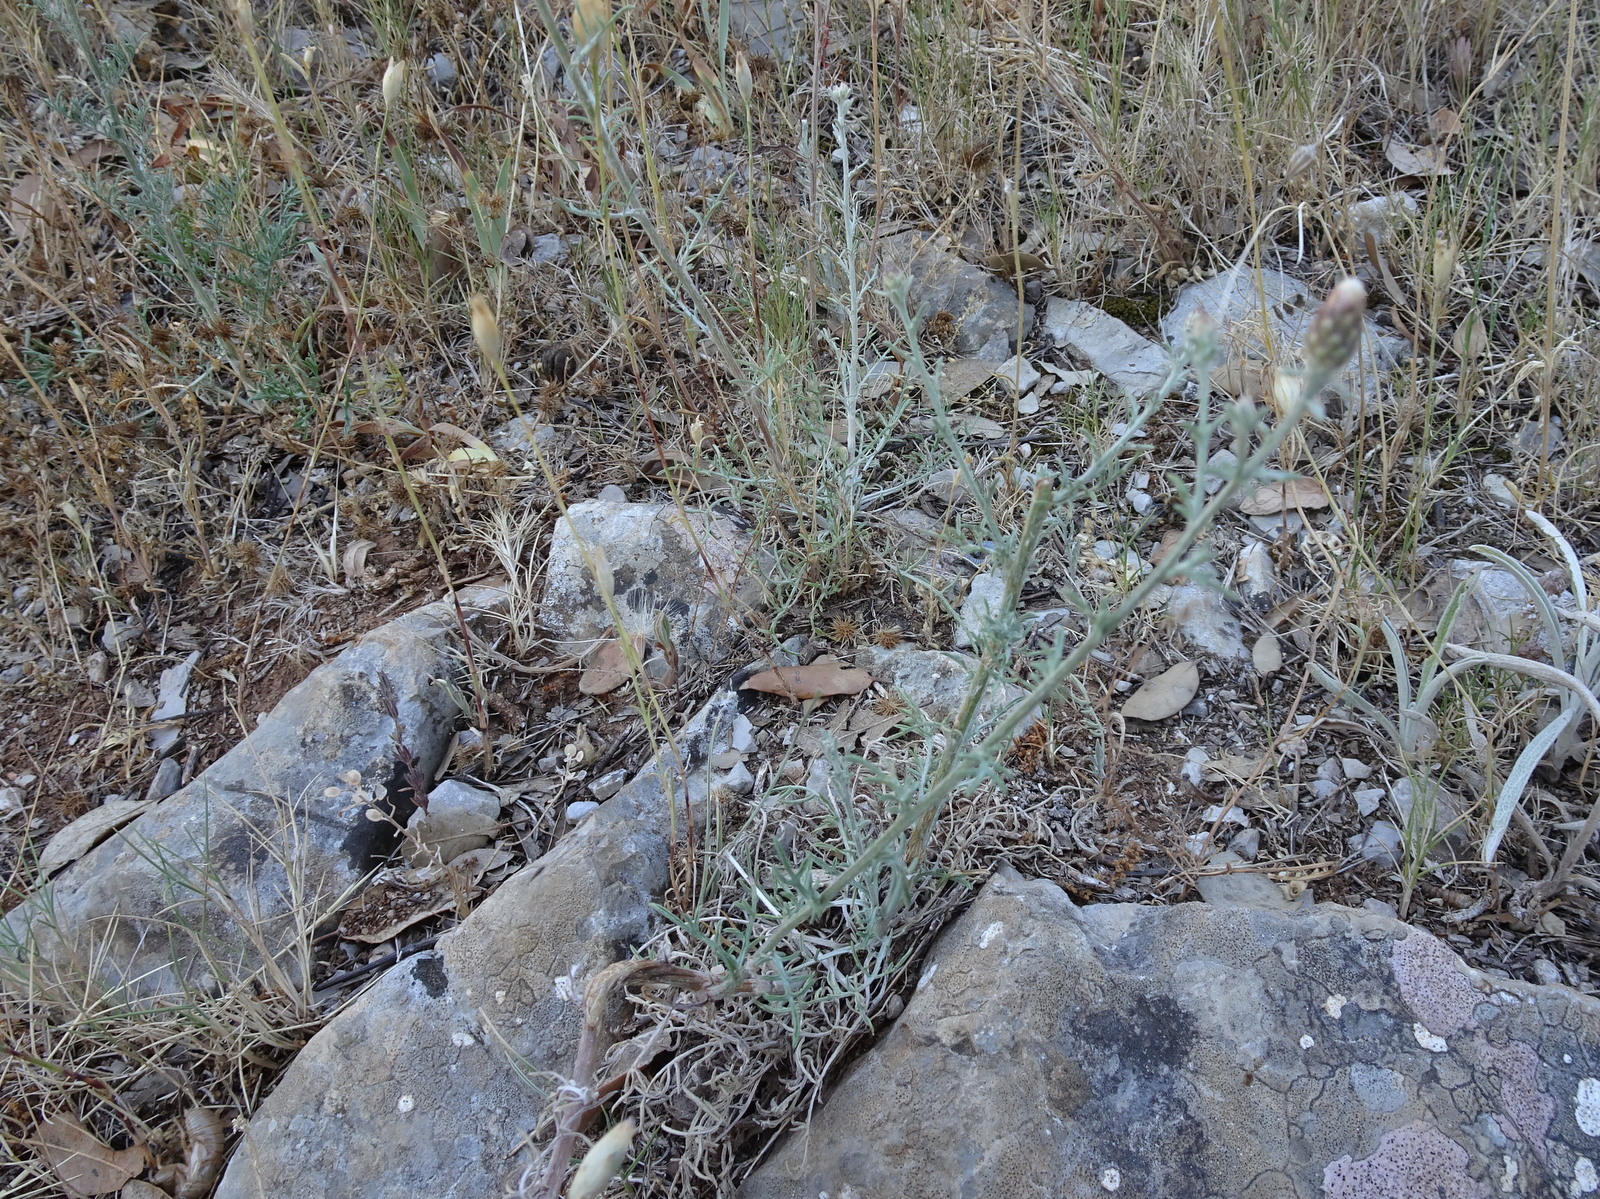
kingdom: Plantae
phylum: Tracheophyta
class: Magnoliopsida
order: Asterales
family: Asteraceae
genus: Centaurea
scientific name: Centaurea paniculata
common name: Jersey knapweed
